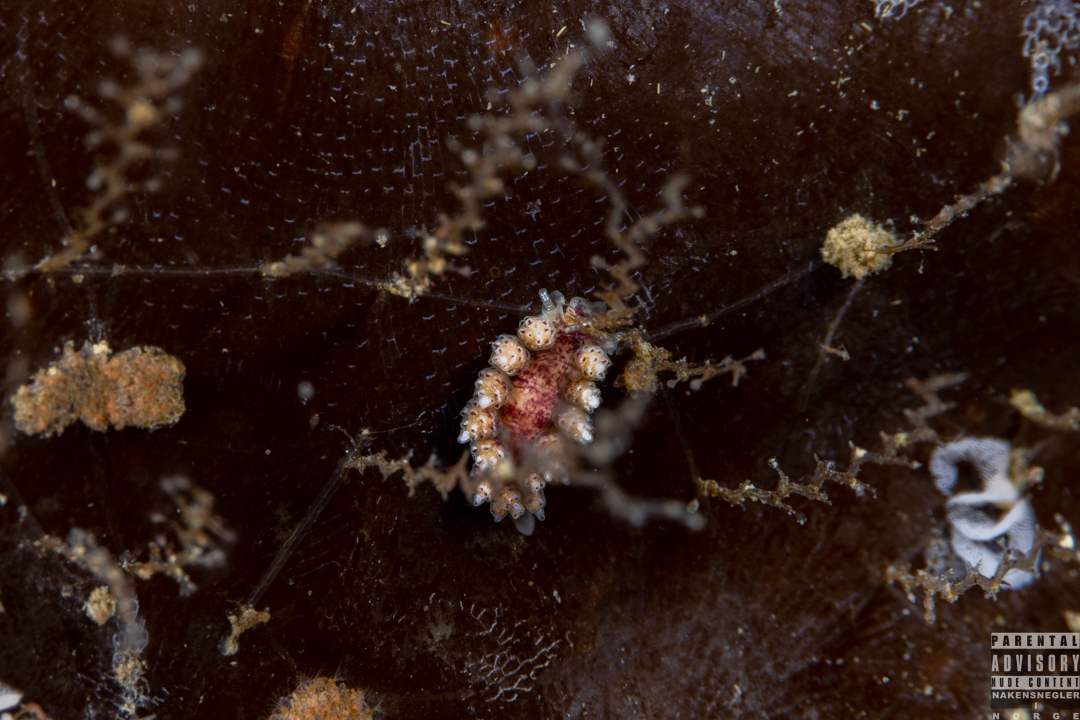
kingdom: Animalia
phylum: Mollusca
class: Gastropoda
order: Nudibranchia
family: Dotidae
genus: Doto
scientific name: Doto coronata
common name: Coronate doto
